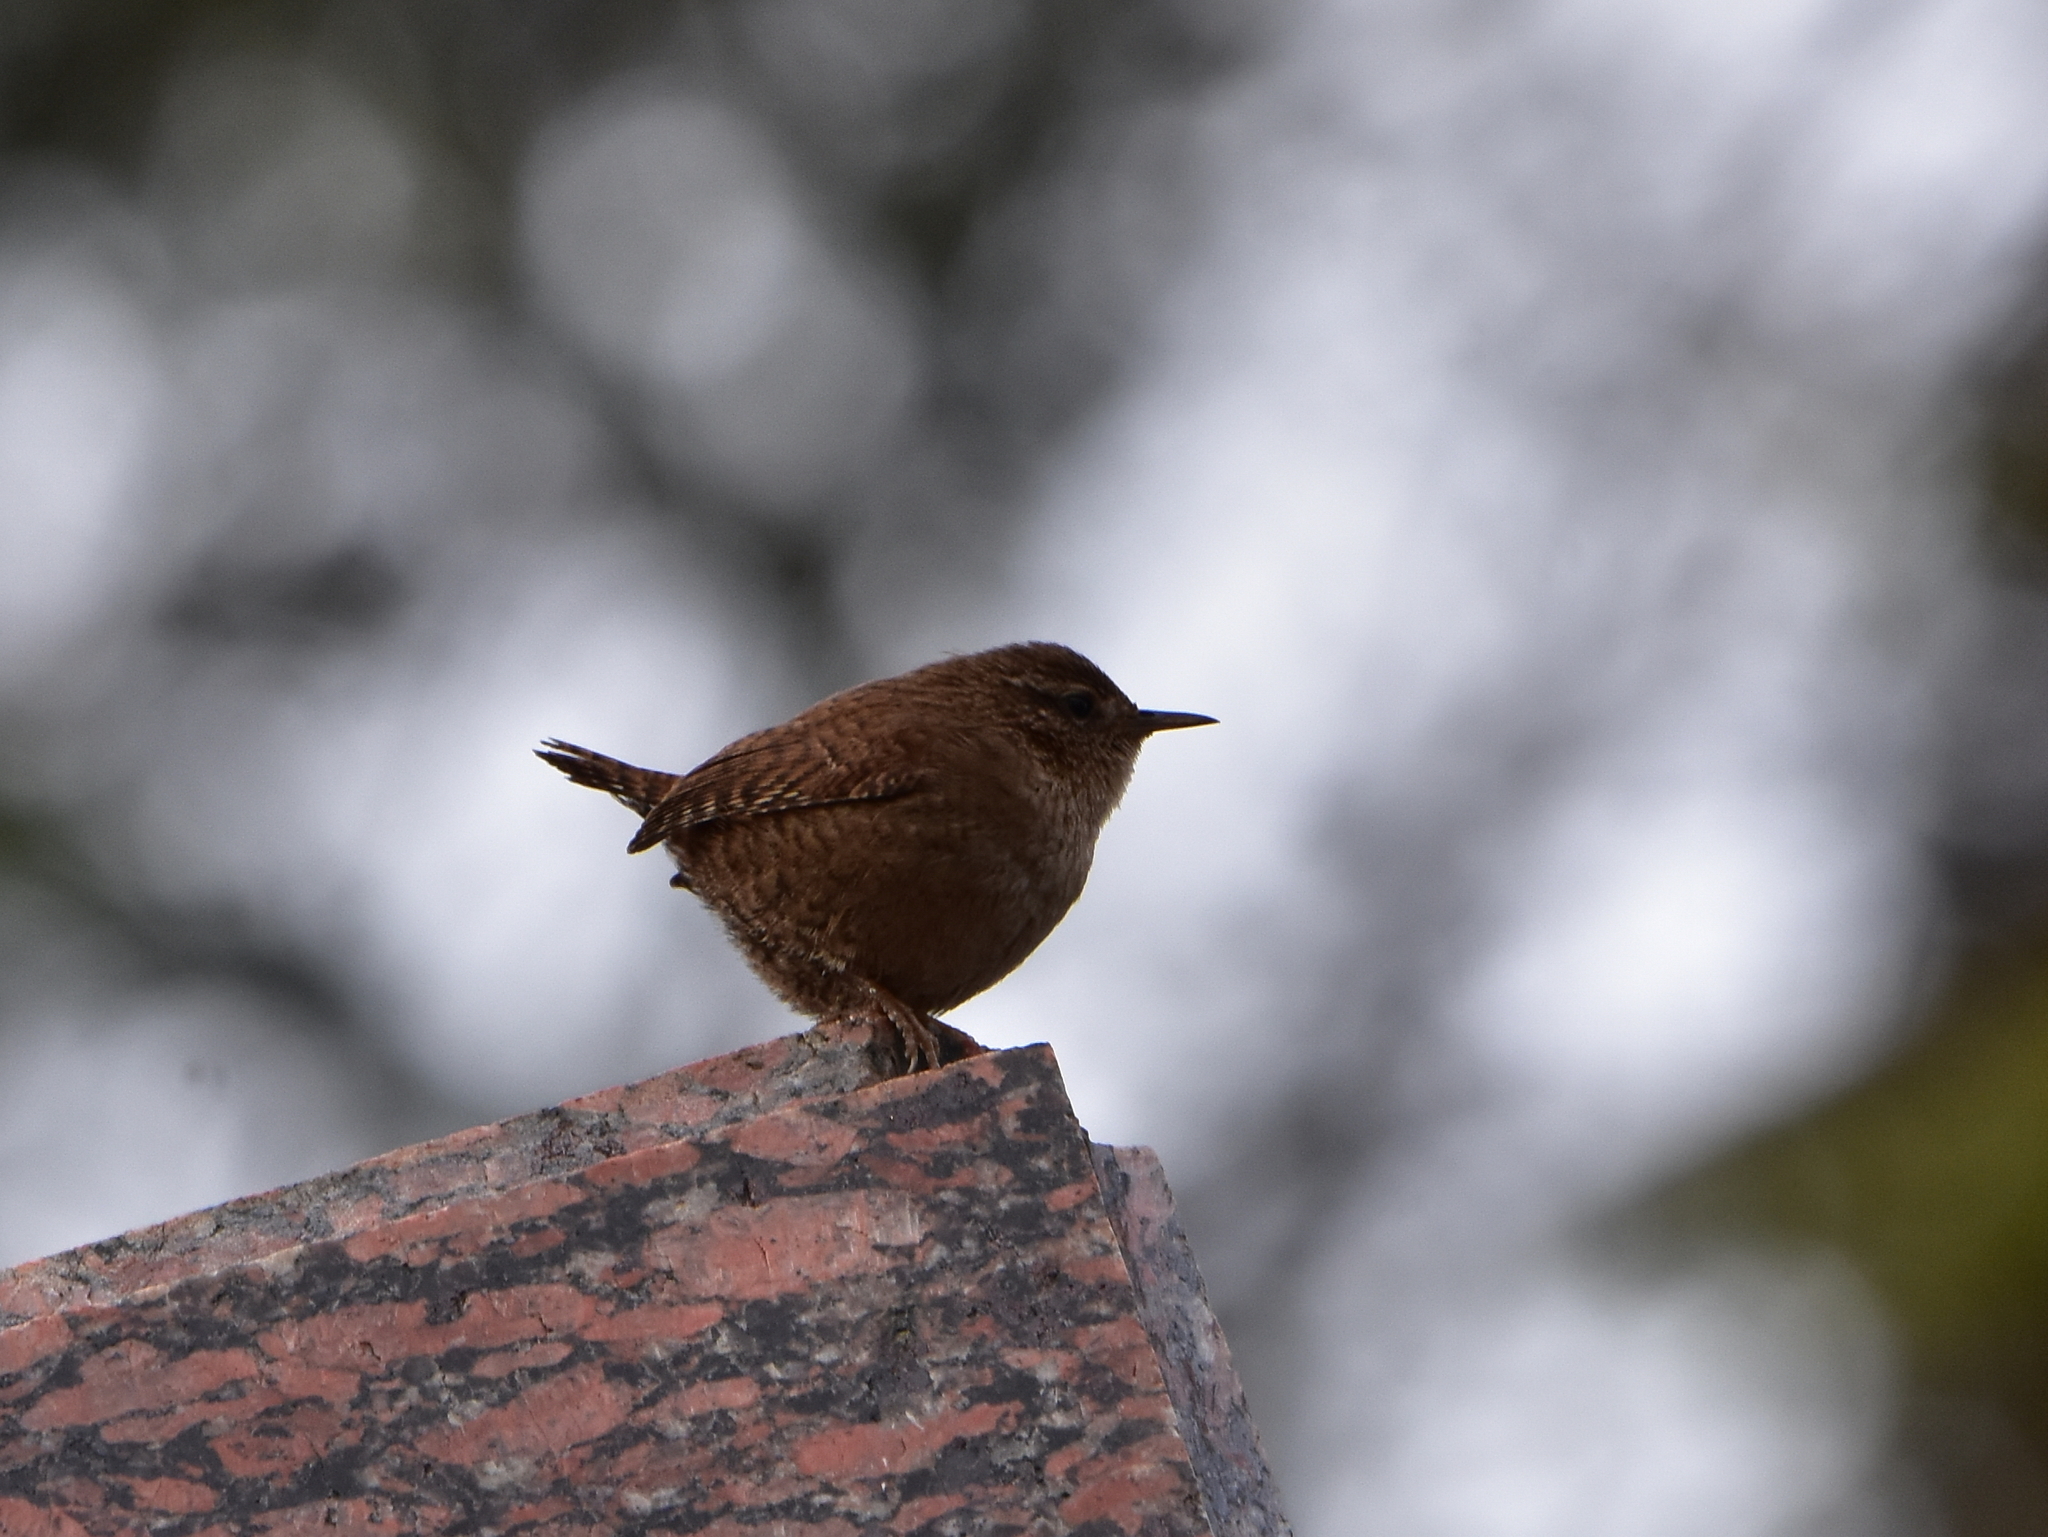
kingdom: Animalia
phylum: Chordata
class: Aves
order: Passeriformes
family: Troglodytidae
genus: Troglodytes
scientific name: Troglodytes troglodytes
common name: Eurasian wren
